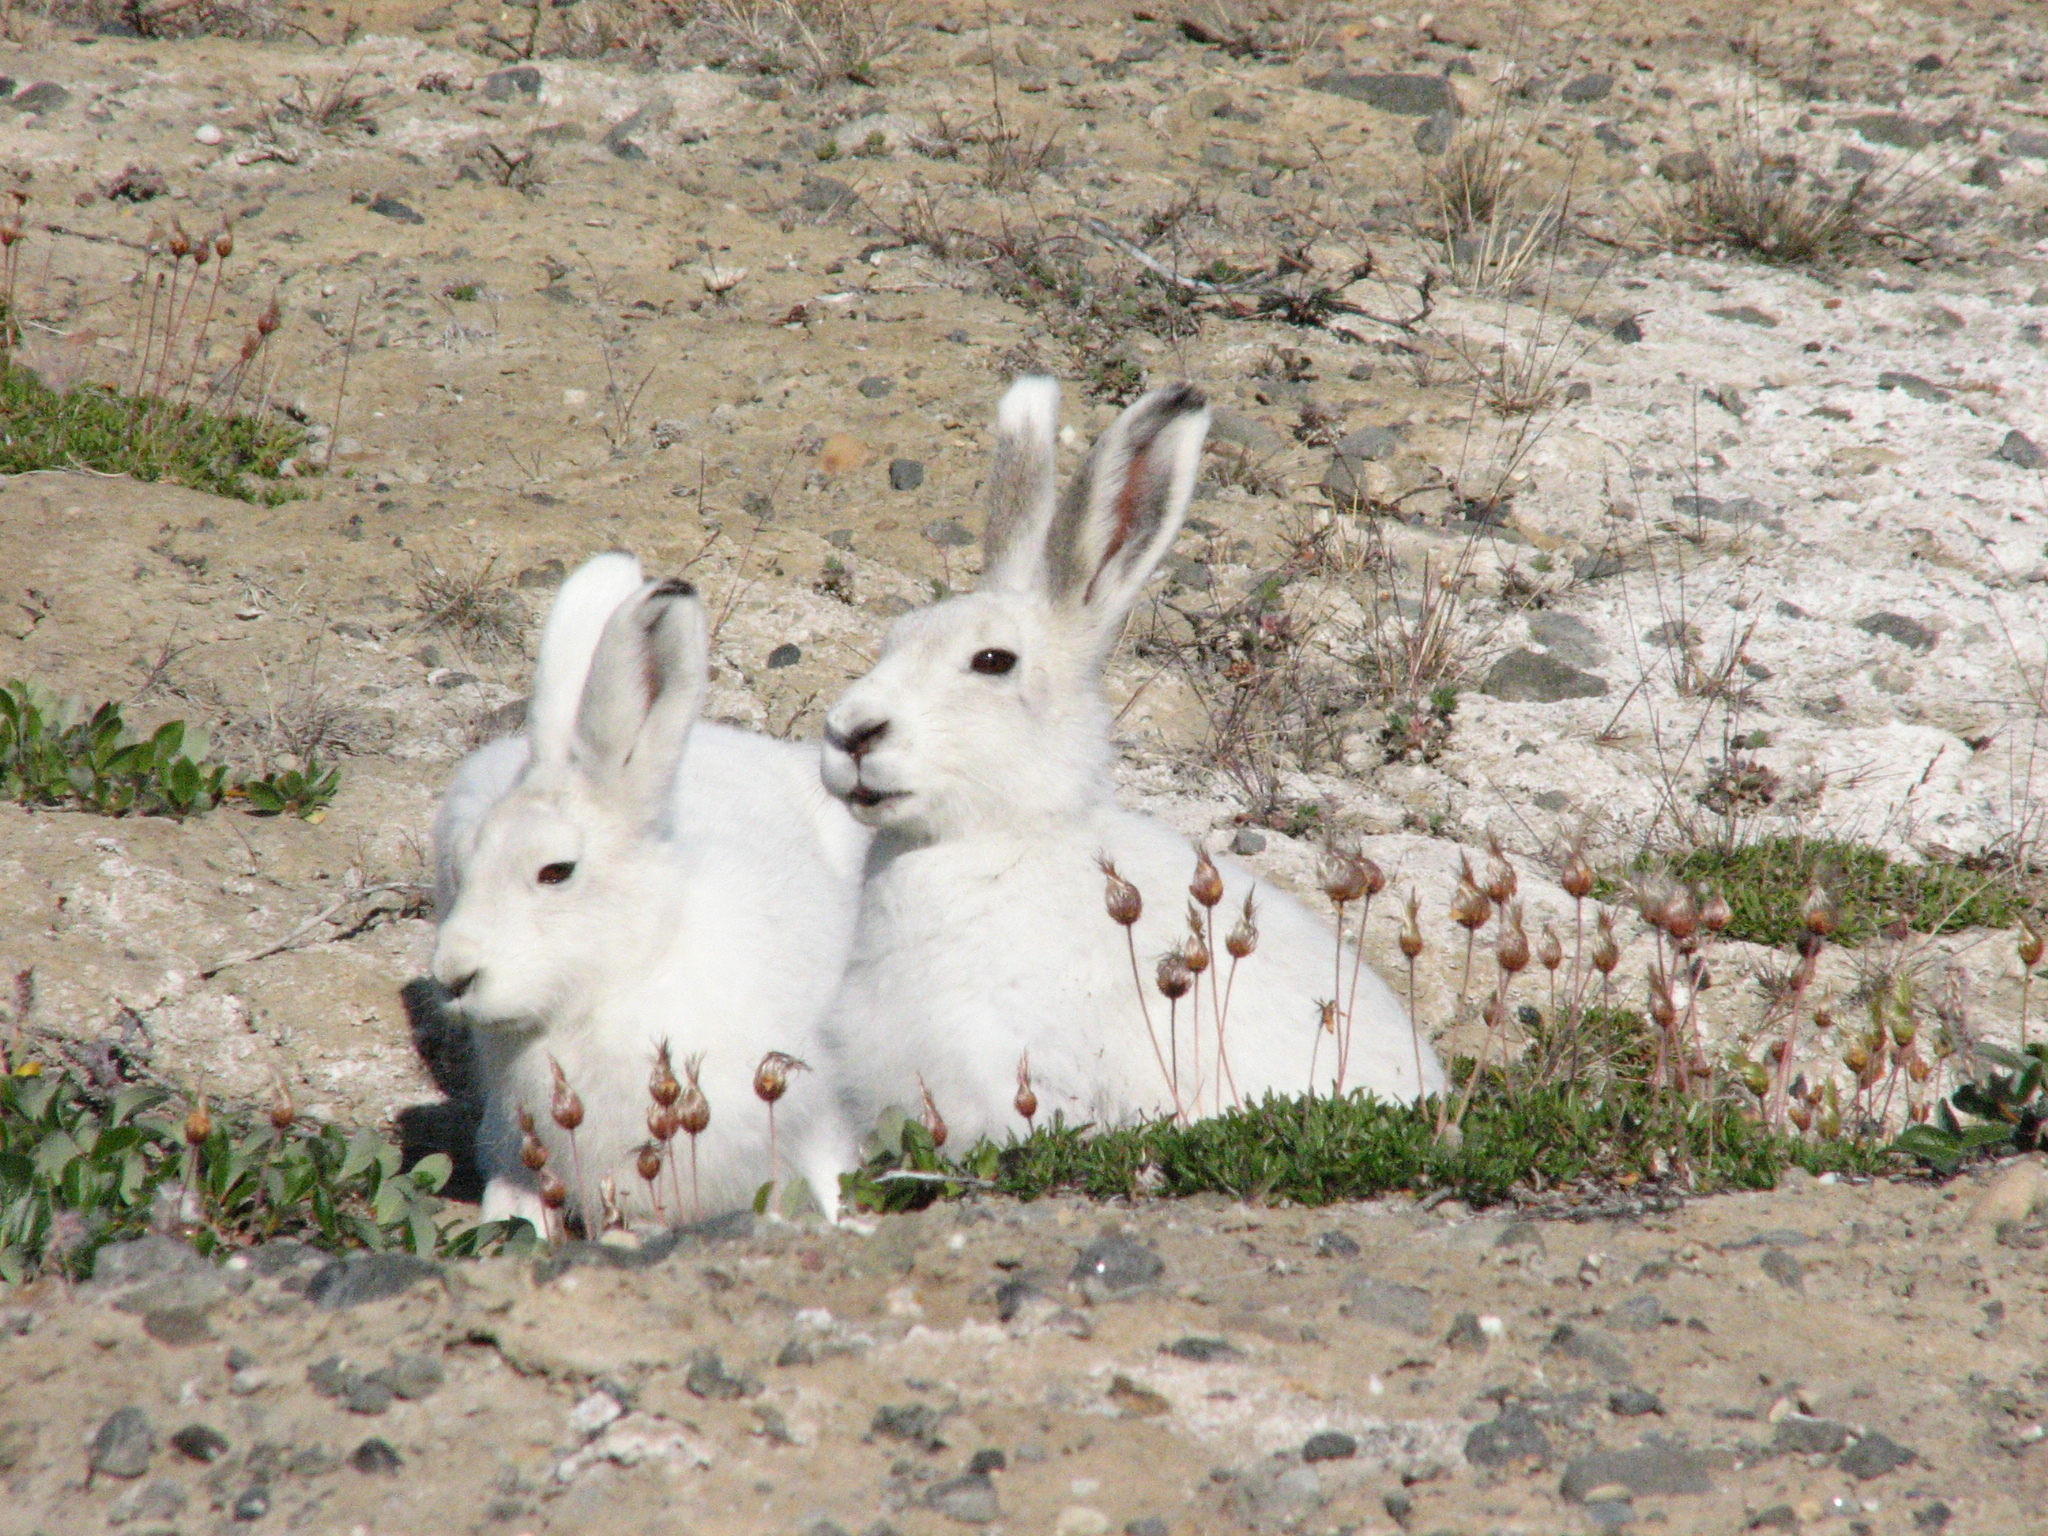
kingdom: Animalia
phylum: Chordata
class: Mammalia
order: Lagomorpha
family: Leporidae
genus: Lepus
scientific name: Lepus arcticus
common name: Arctic hare
